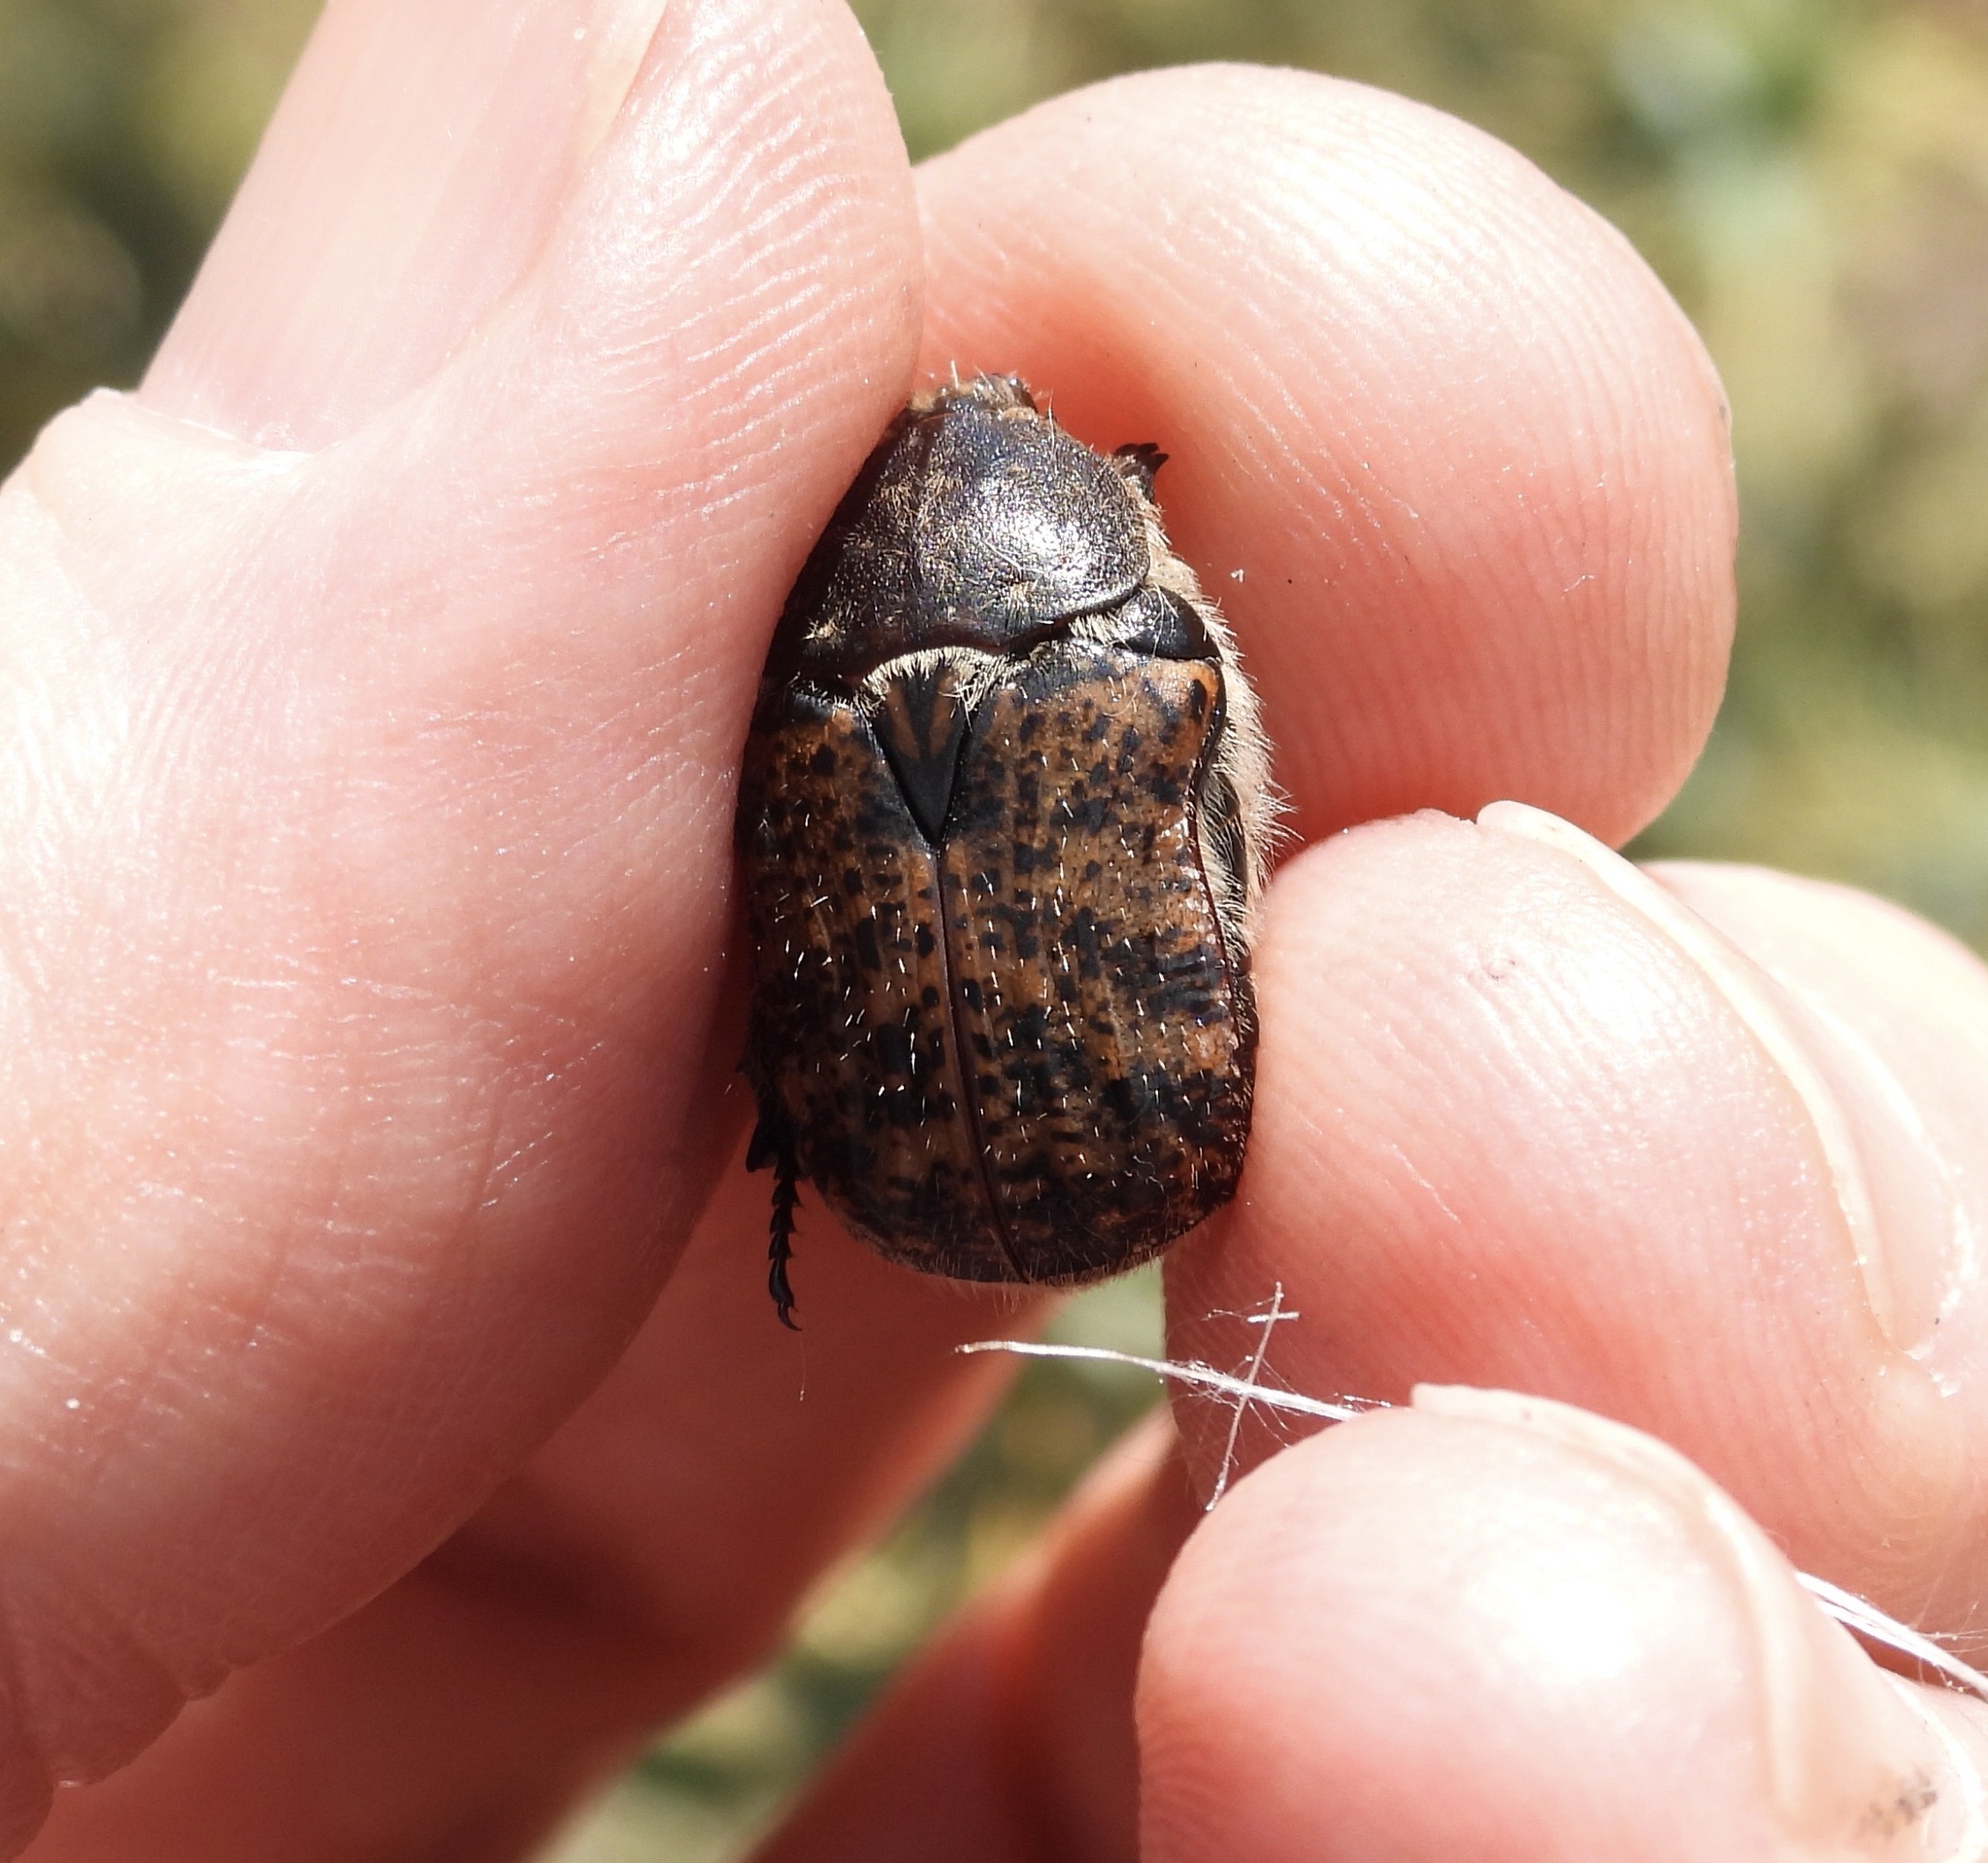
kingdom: Animalia
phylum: Arthropoda
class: Insecta
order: Coleoptera
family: Scarabaeidae
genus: Euphoria
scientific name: Euphoria inda
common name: Bumble flower beetle
